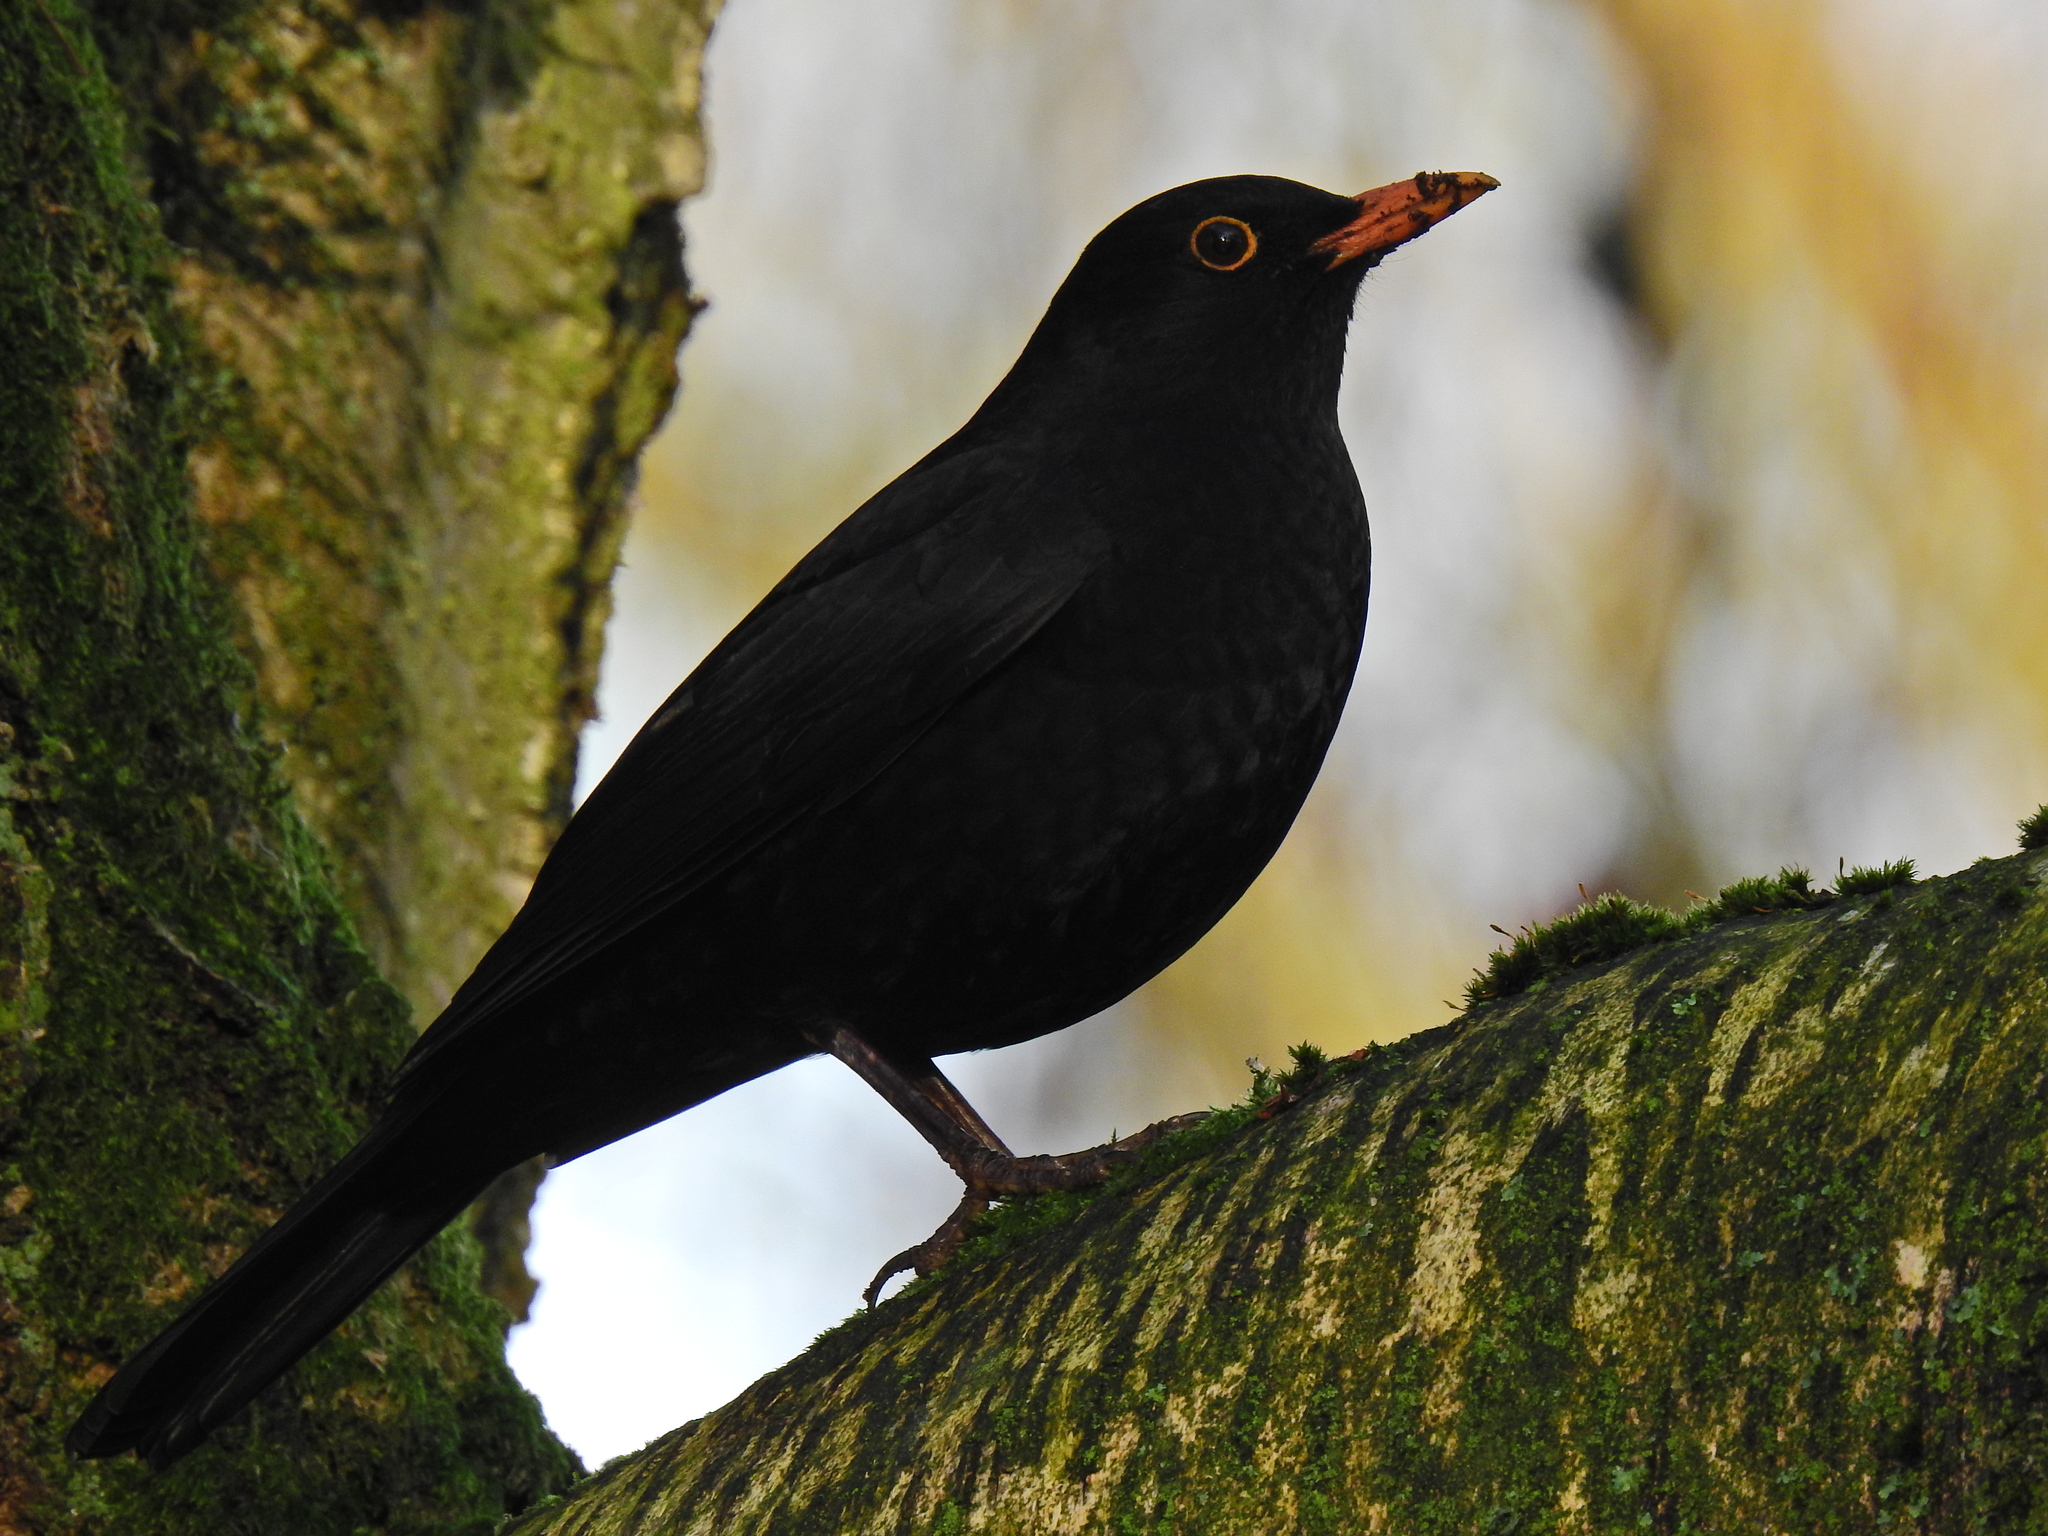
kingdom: Animalia
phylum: Chordata
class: Aves
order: Passeriformes
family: Turdidae
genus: Turdus
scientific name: Turdus merula
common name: Common blackbird
